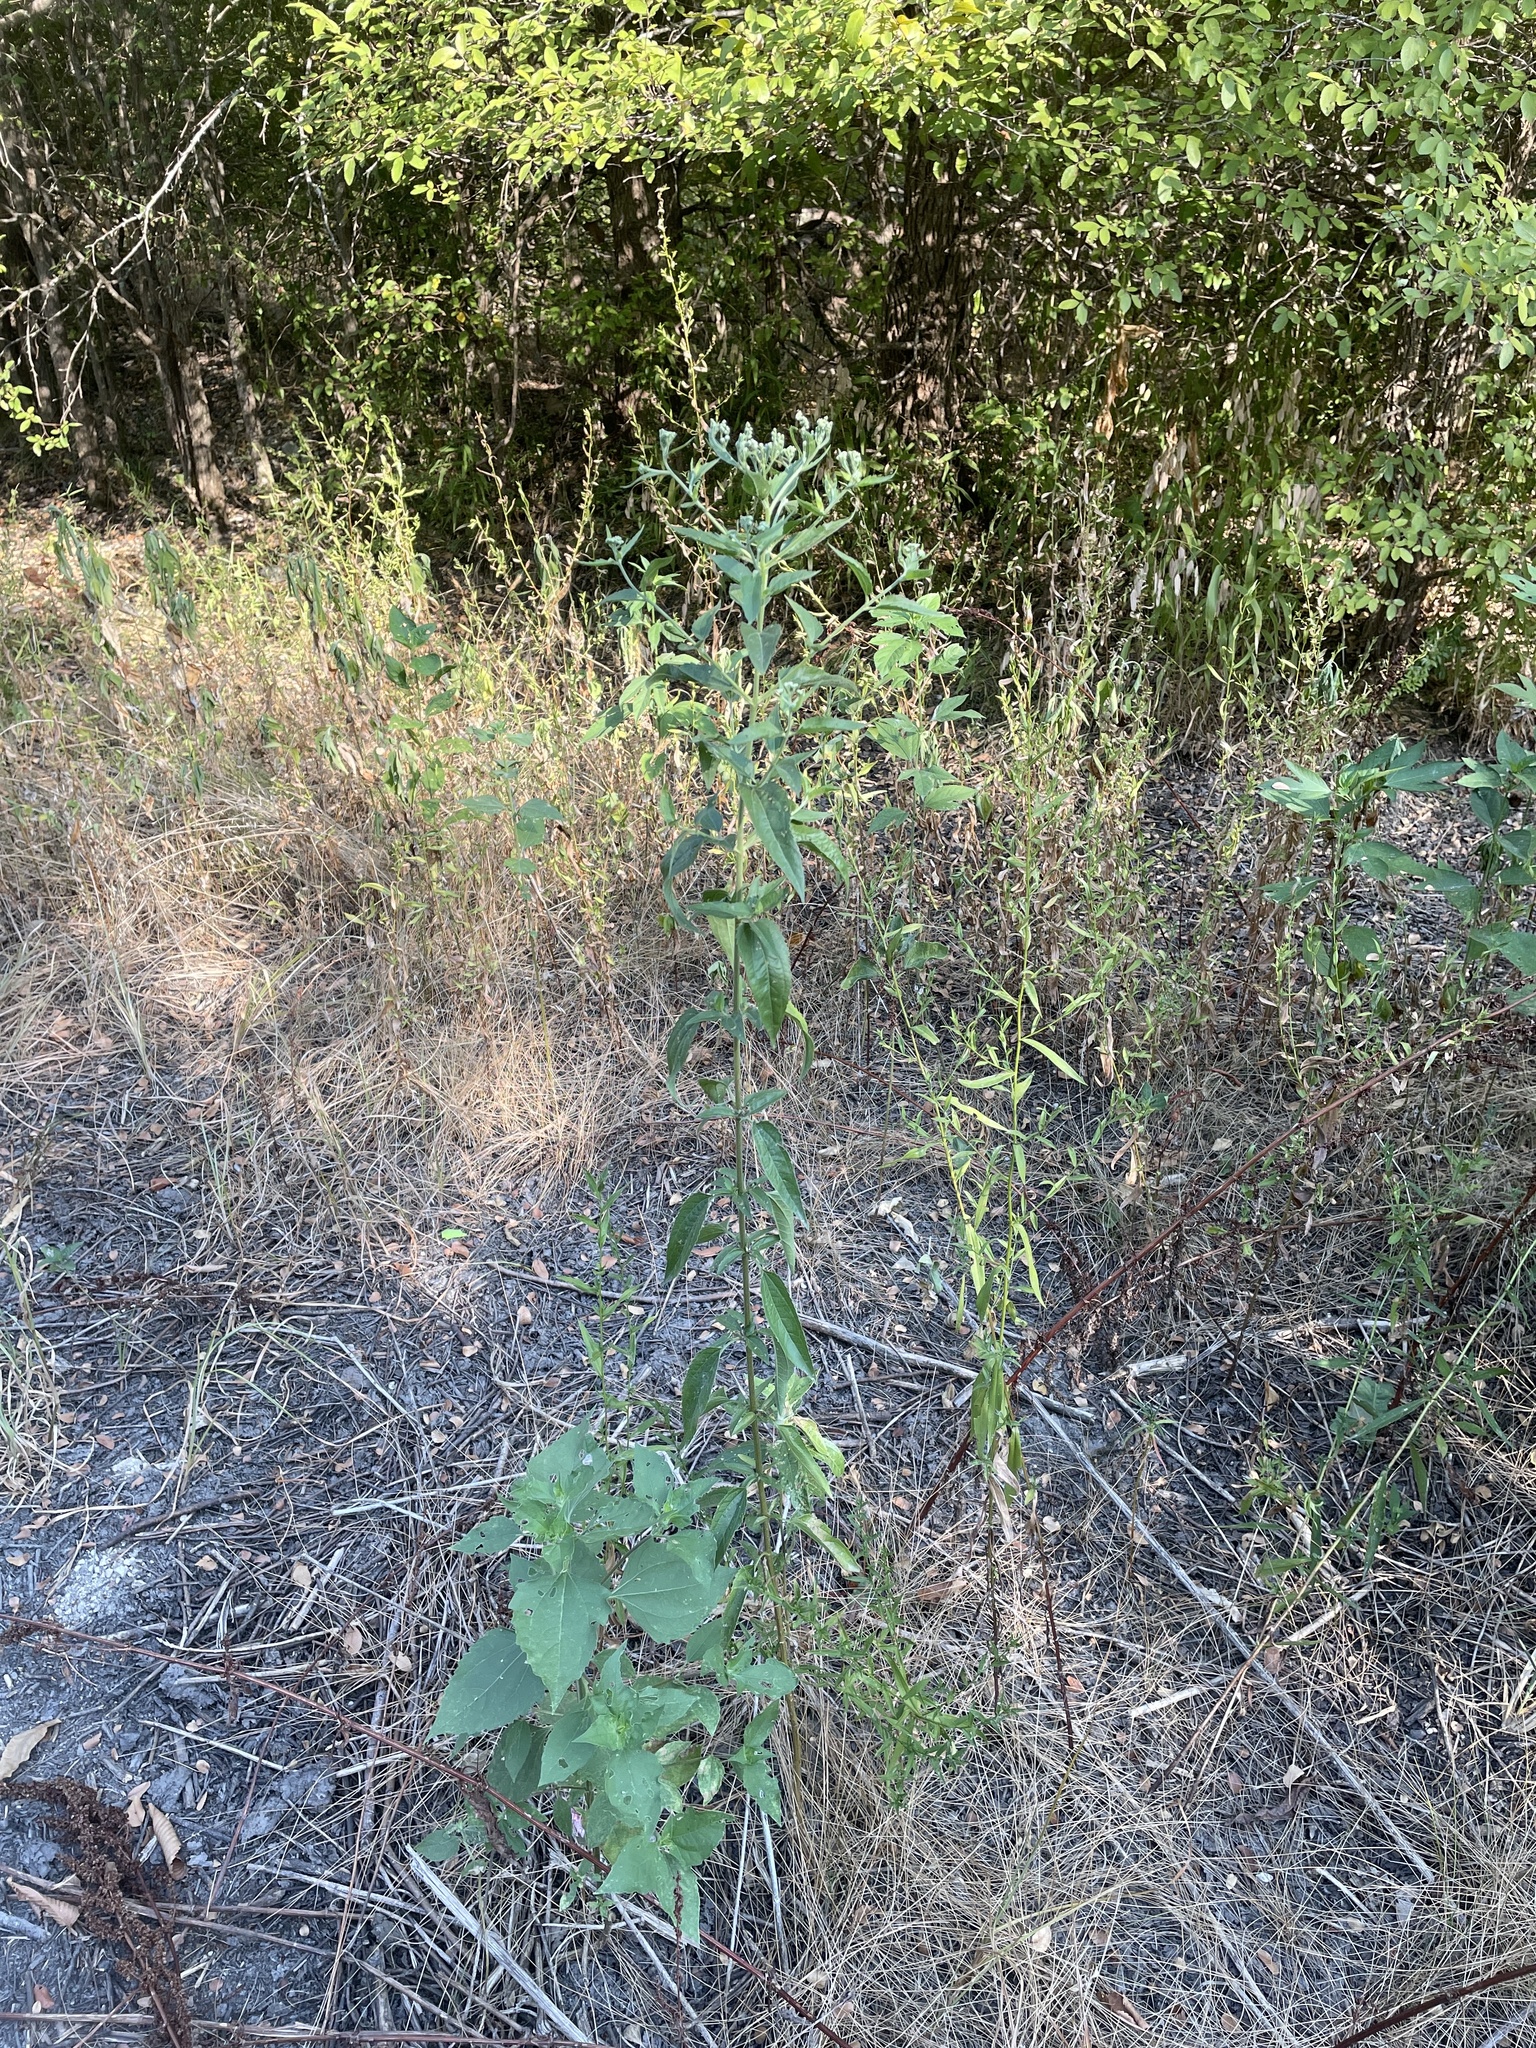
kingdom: Plantae
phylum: Tracheophyta
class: Magnoliopsida
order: Asterales
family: Asteraceae
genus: Eupatorium
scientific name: Eupatorium serotinum
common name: Late boneset
